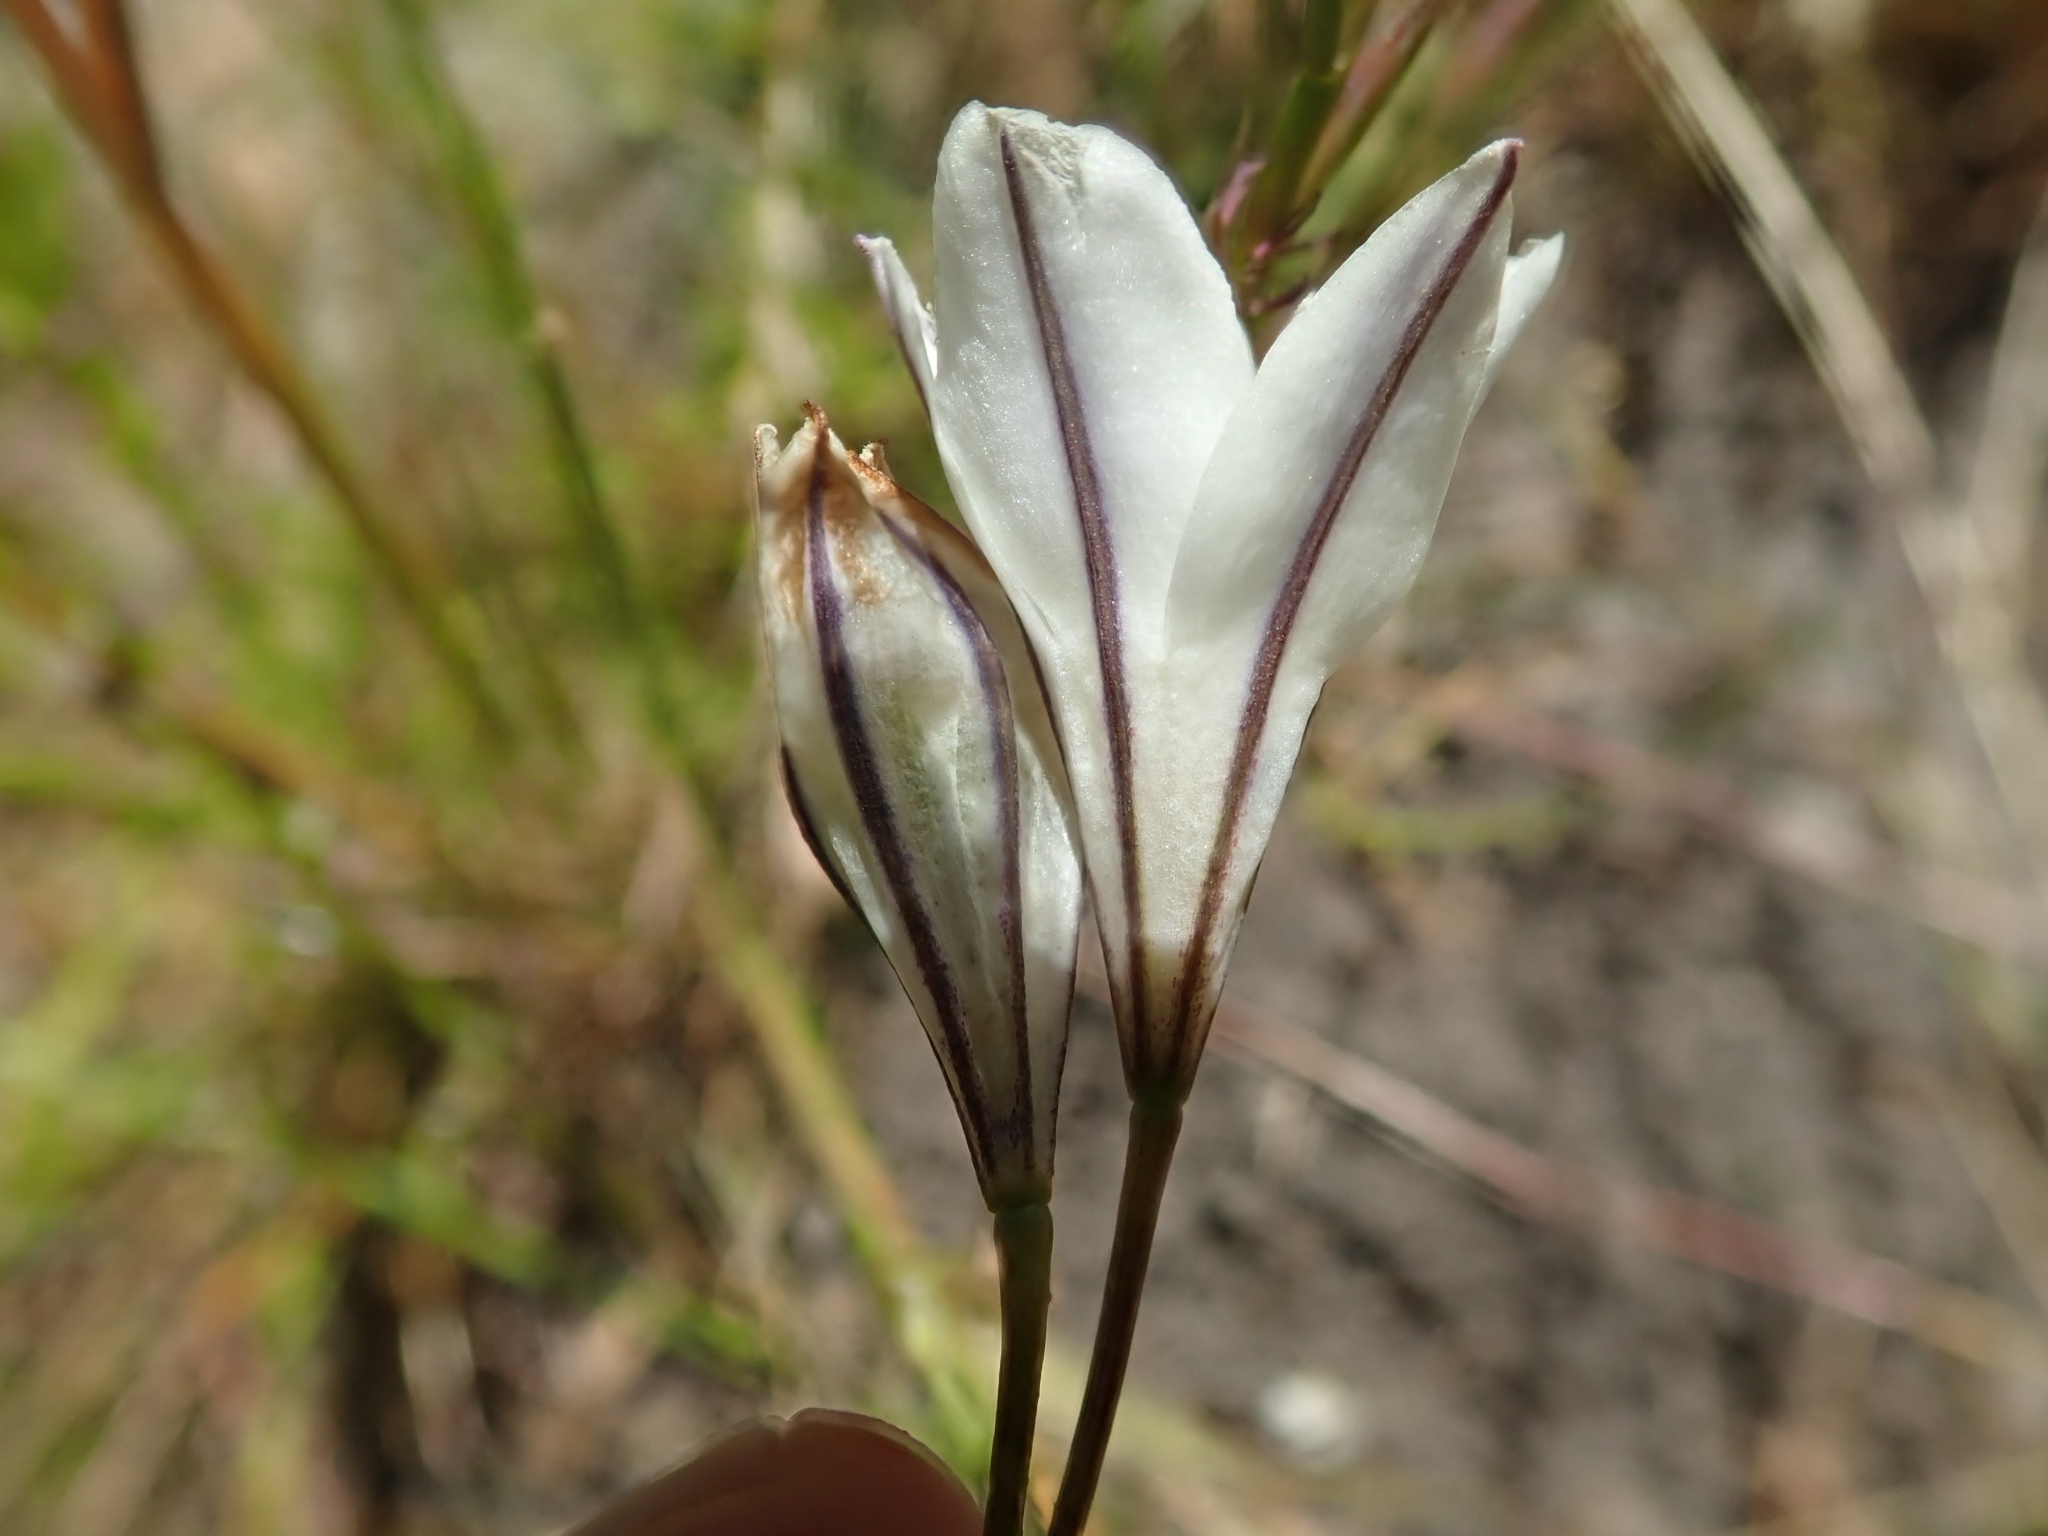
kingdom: Plantae
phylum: Tracheophyta
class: Liliopsida
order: Asparagales
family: Asparagaceae
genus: Triteleia
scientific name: Triteleia peduncularis
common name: Long-ray brodiaea
